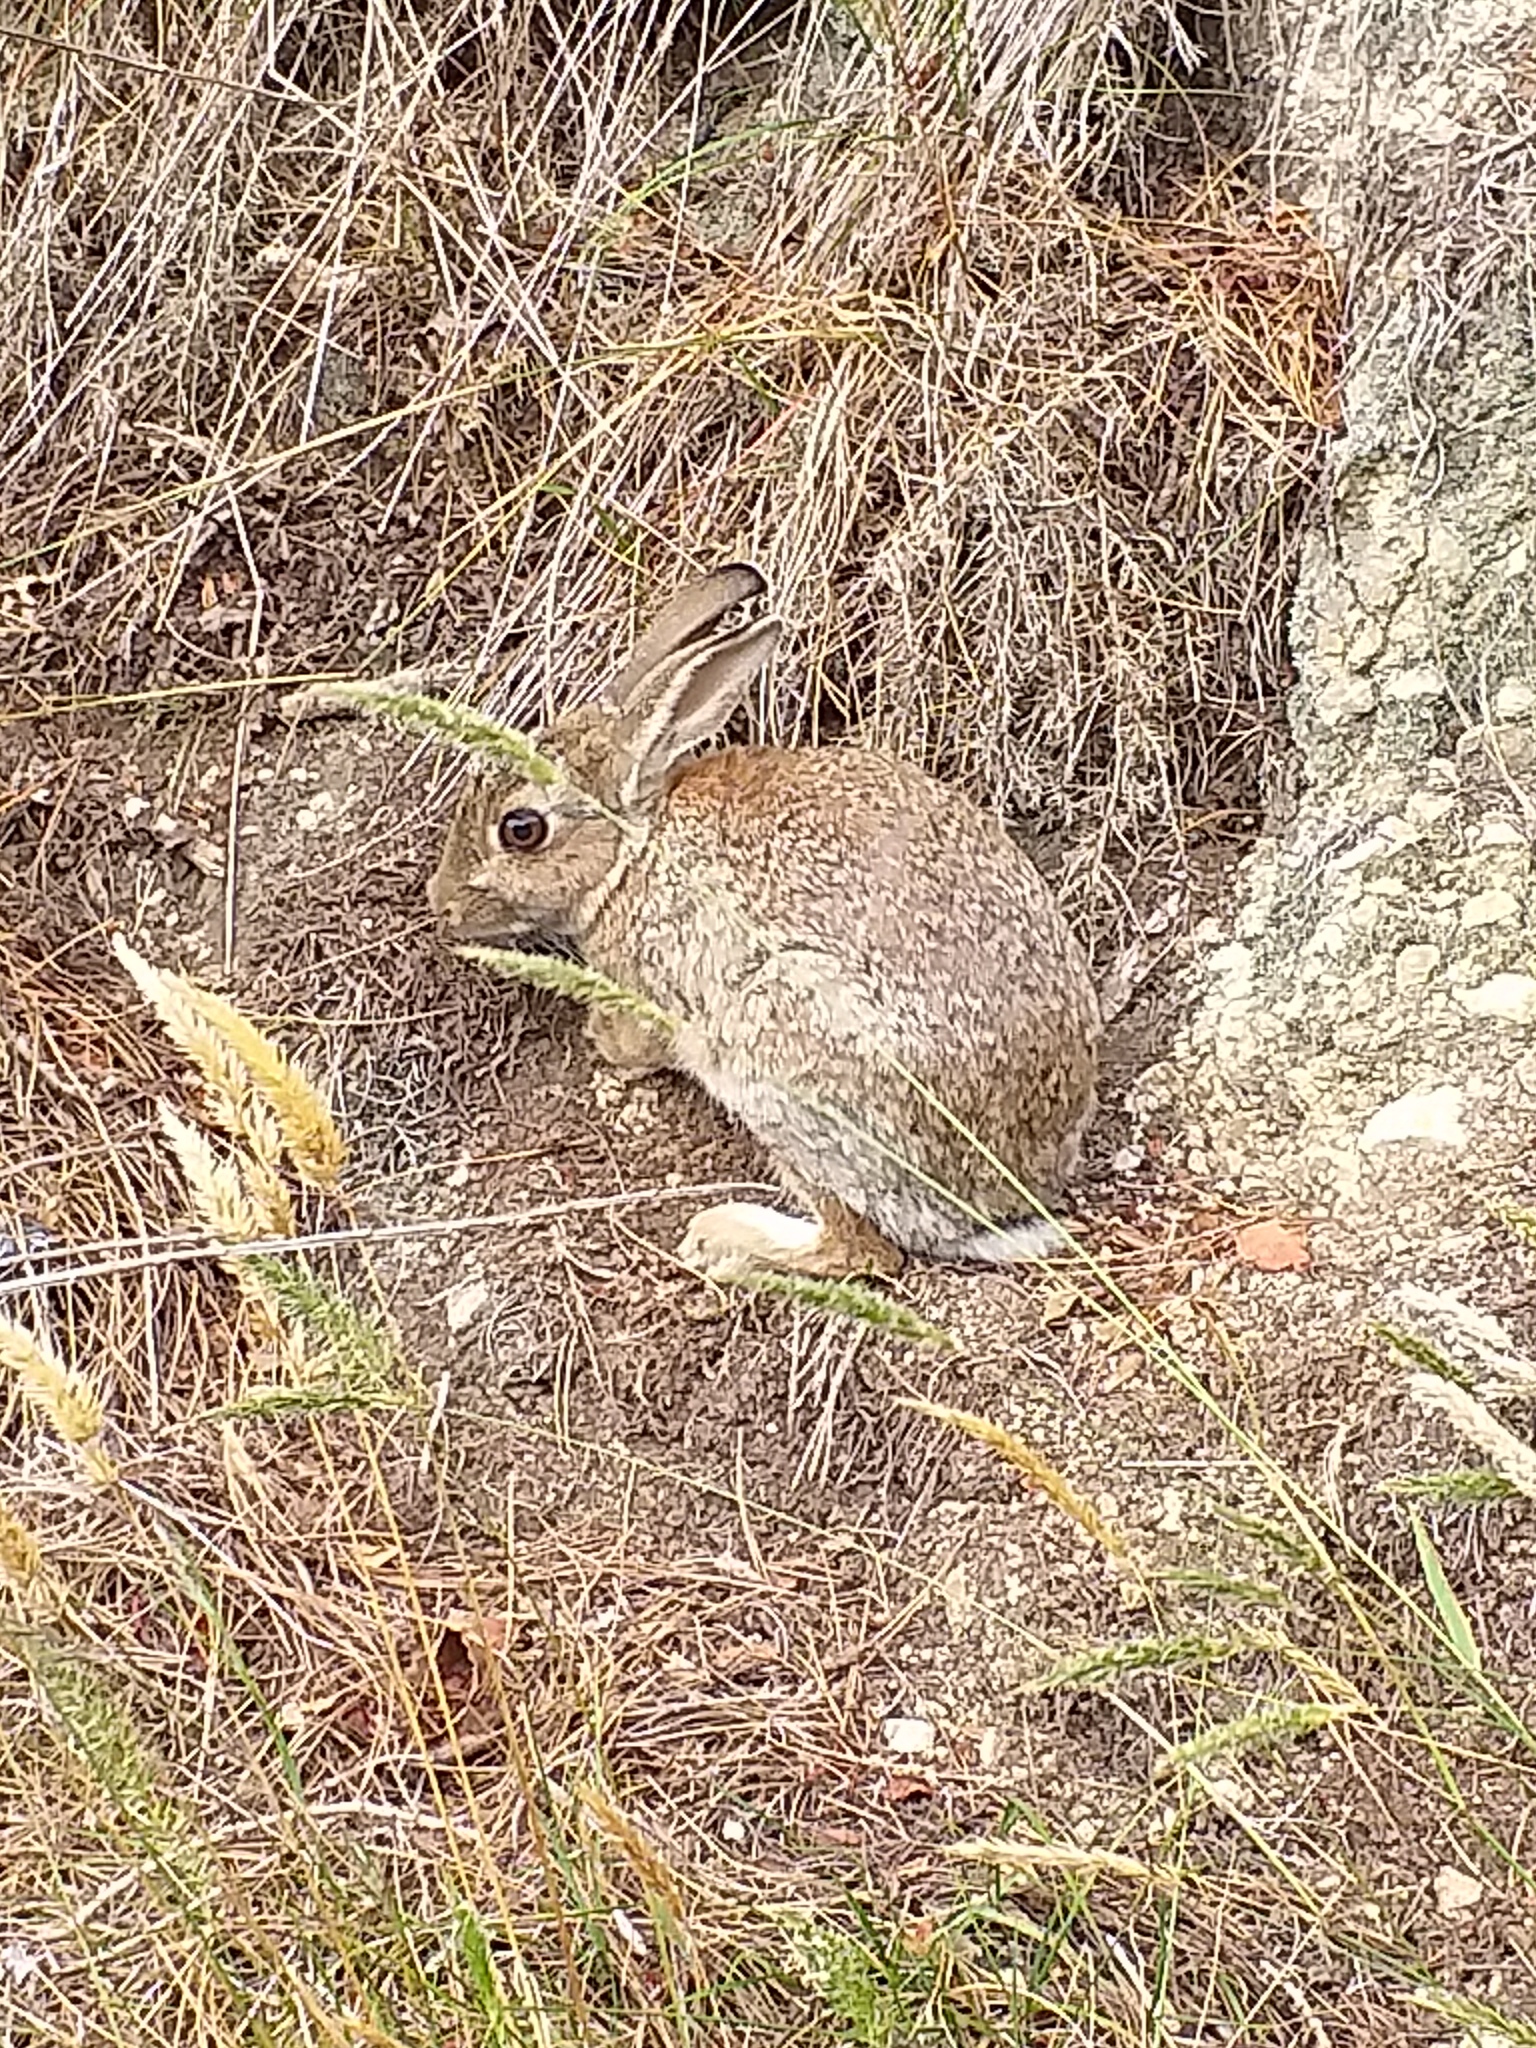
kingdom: Animalia
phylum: Chordata
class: Mammalia
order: Lagomorpha
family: Leporidae
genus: Lepus
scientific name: Lepus europaeus
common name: European hare
